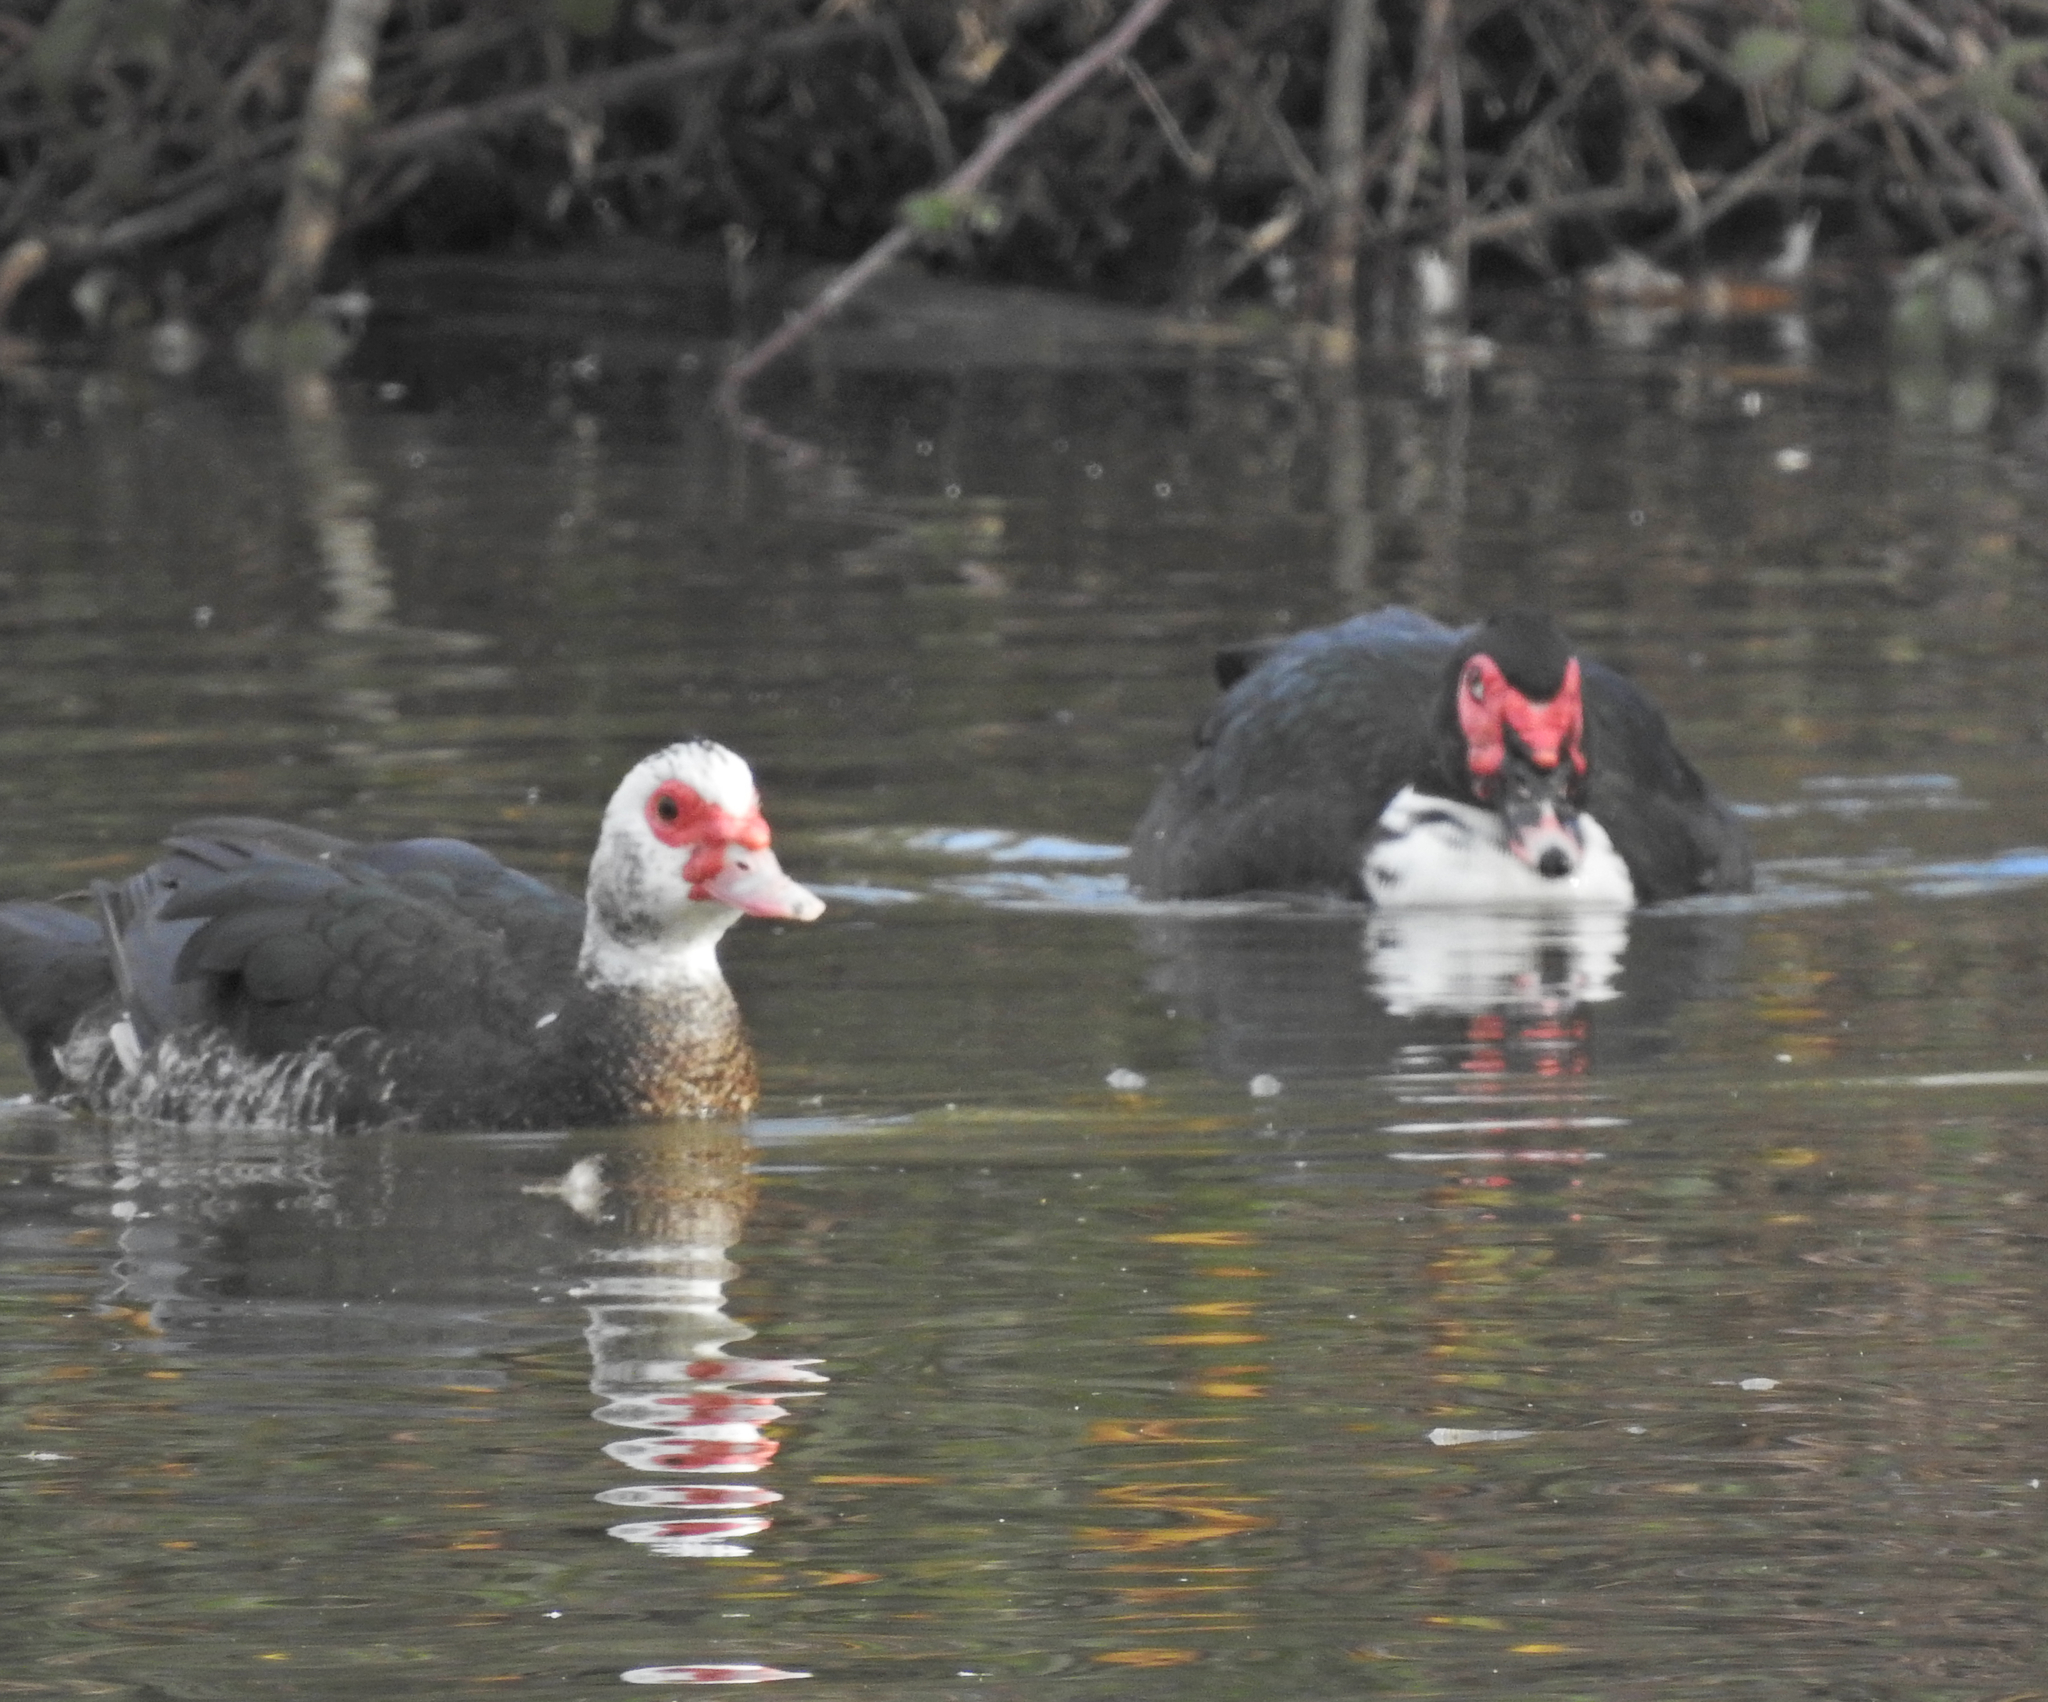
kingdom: Animalia
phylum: Chordata
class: Aves
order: Anseriformes
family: Anatidae
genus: Cairina
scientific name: Cairina moschata
